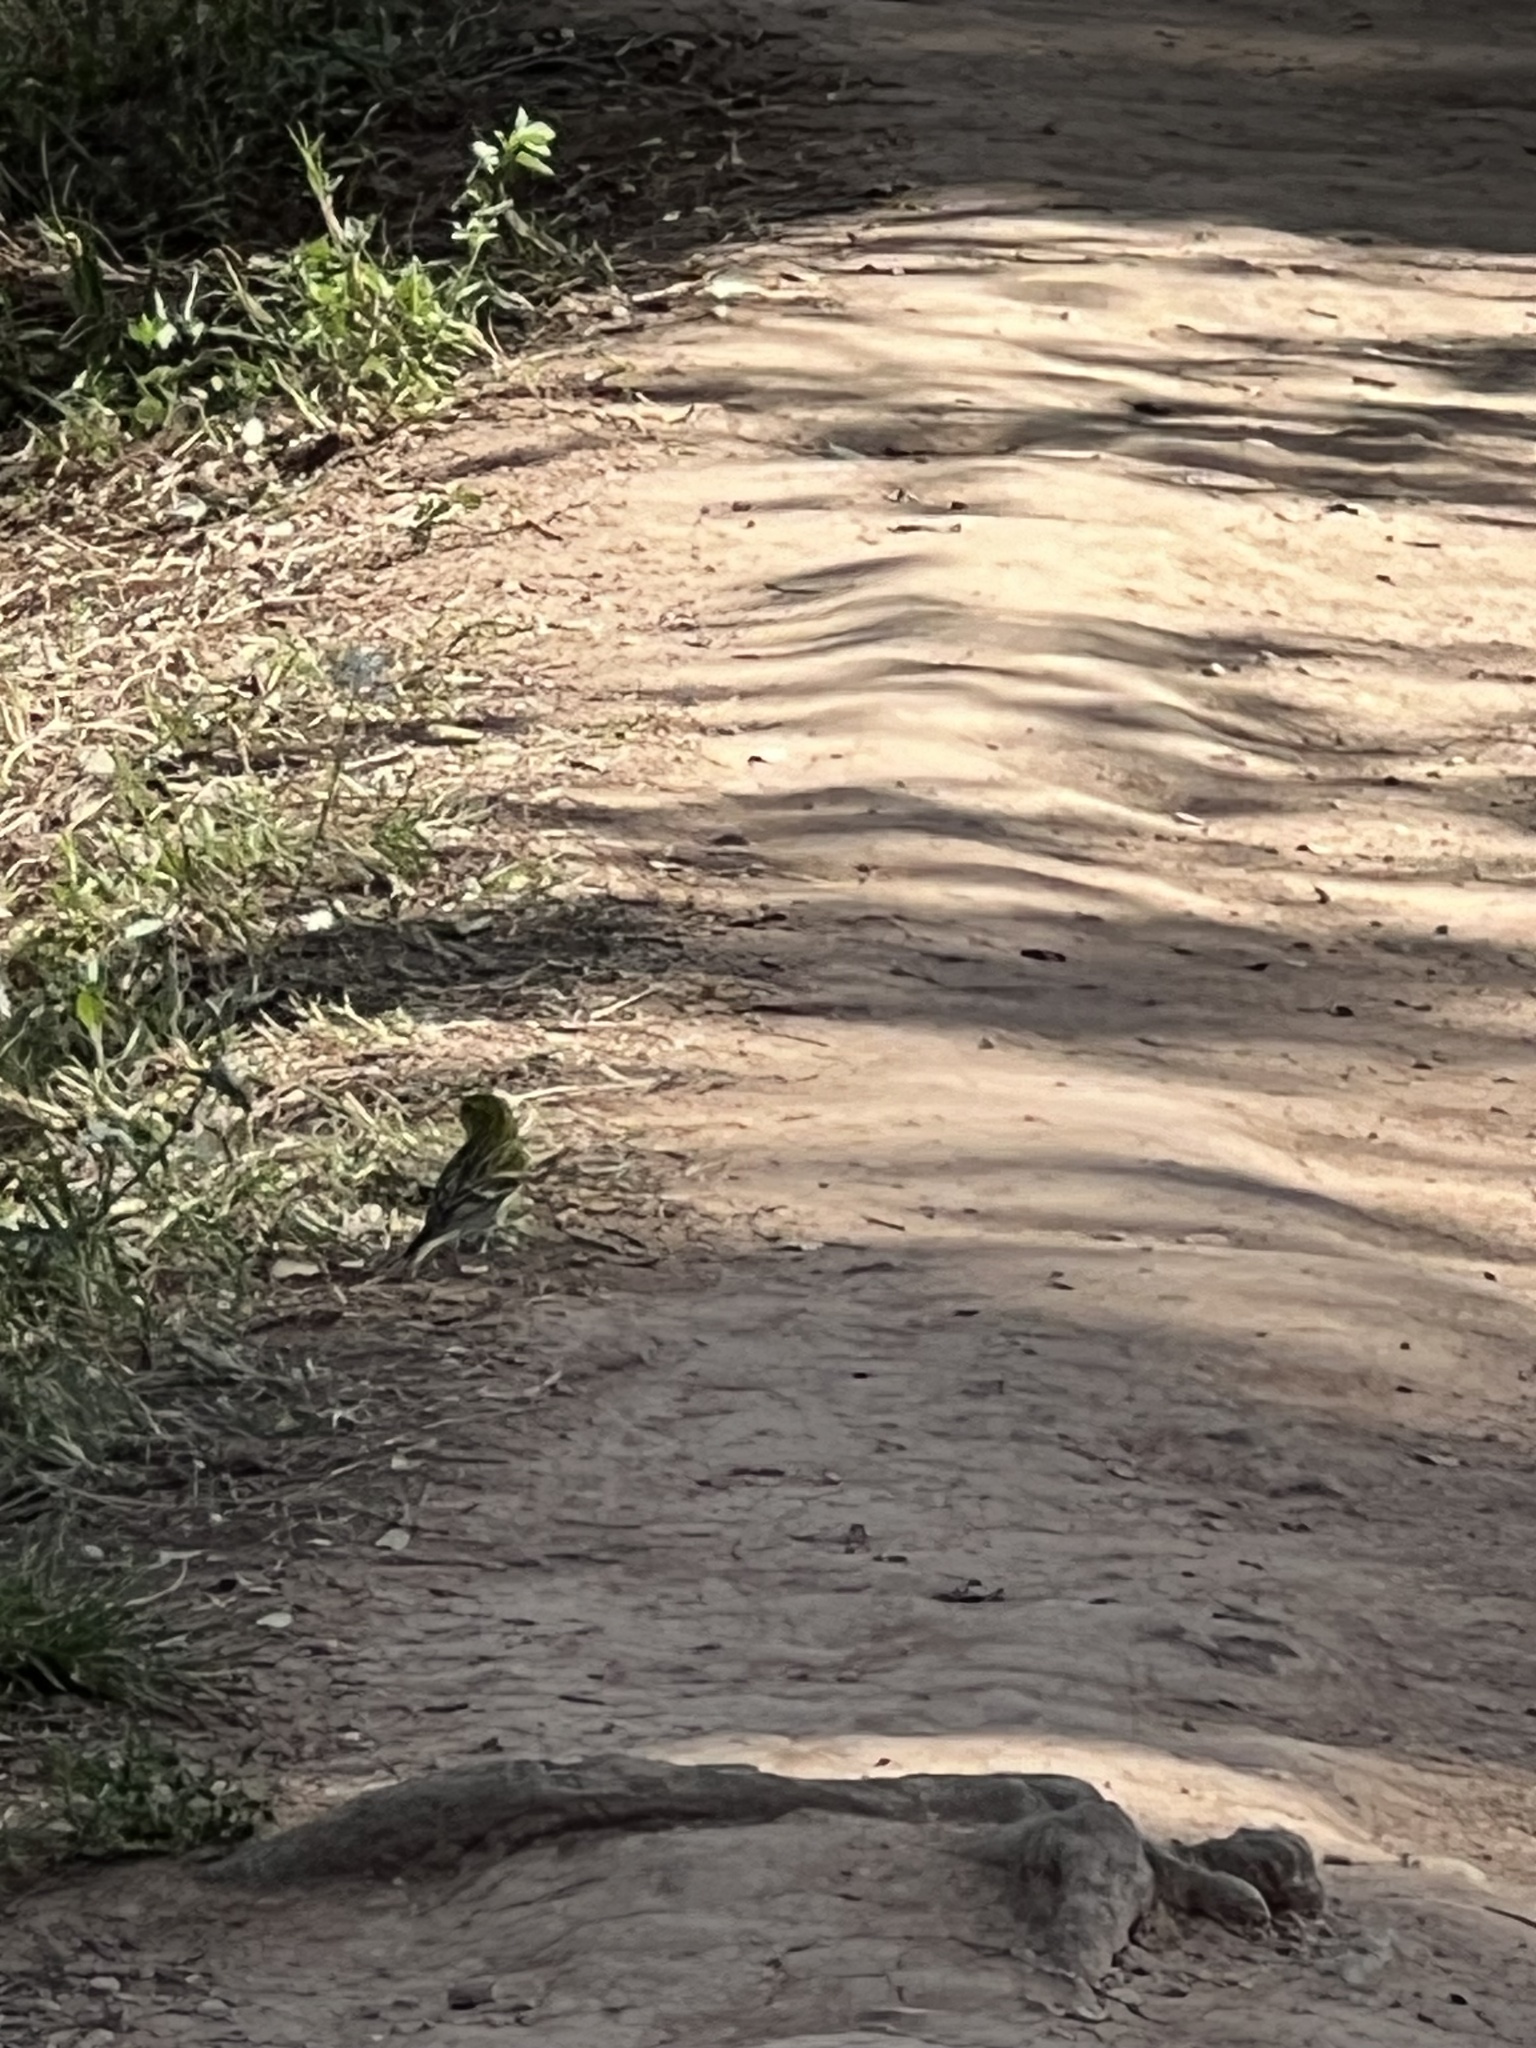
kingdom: Animalia
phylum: Chordata
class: Aves
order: Passeriformes
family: Fringillidae
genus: Serinus
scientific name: Serinus serinus
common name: European serin
